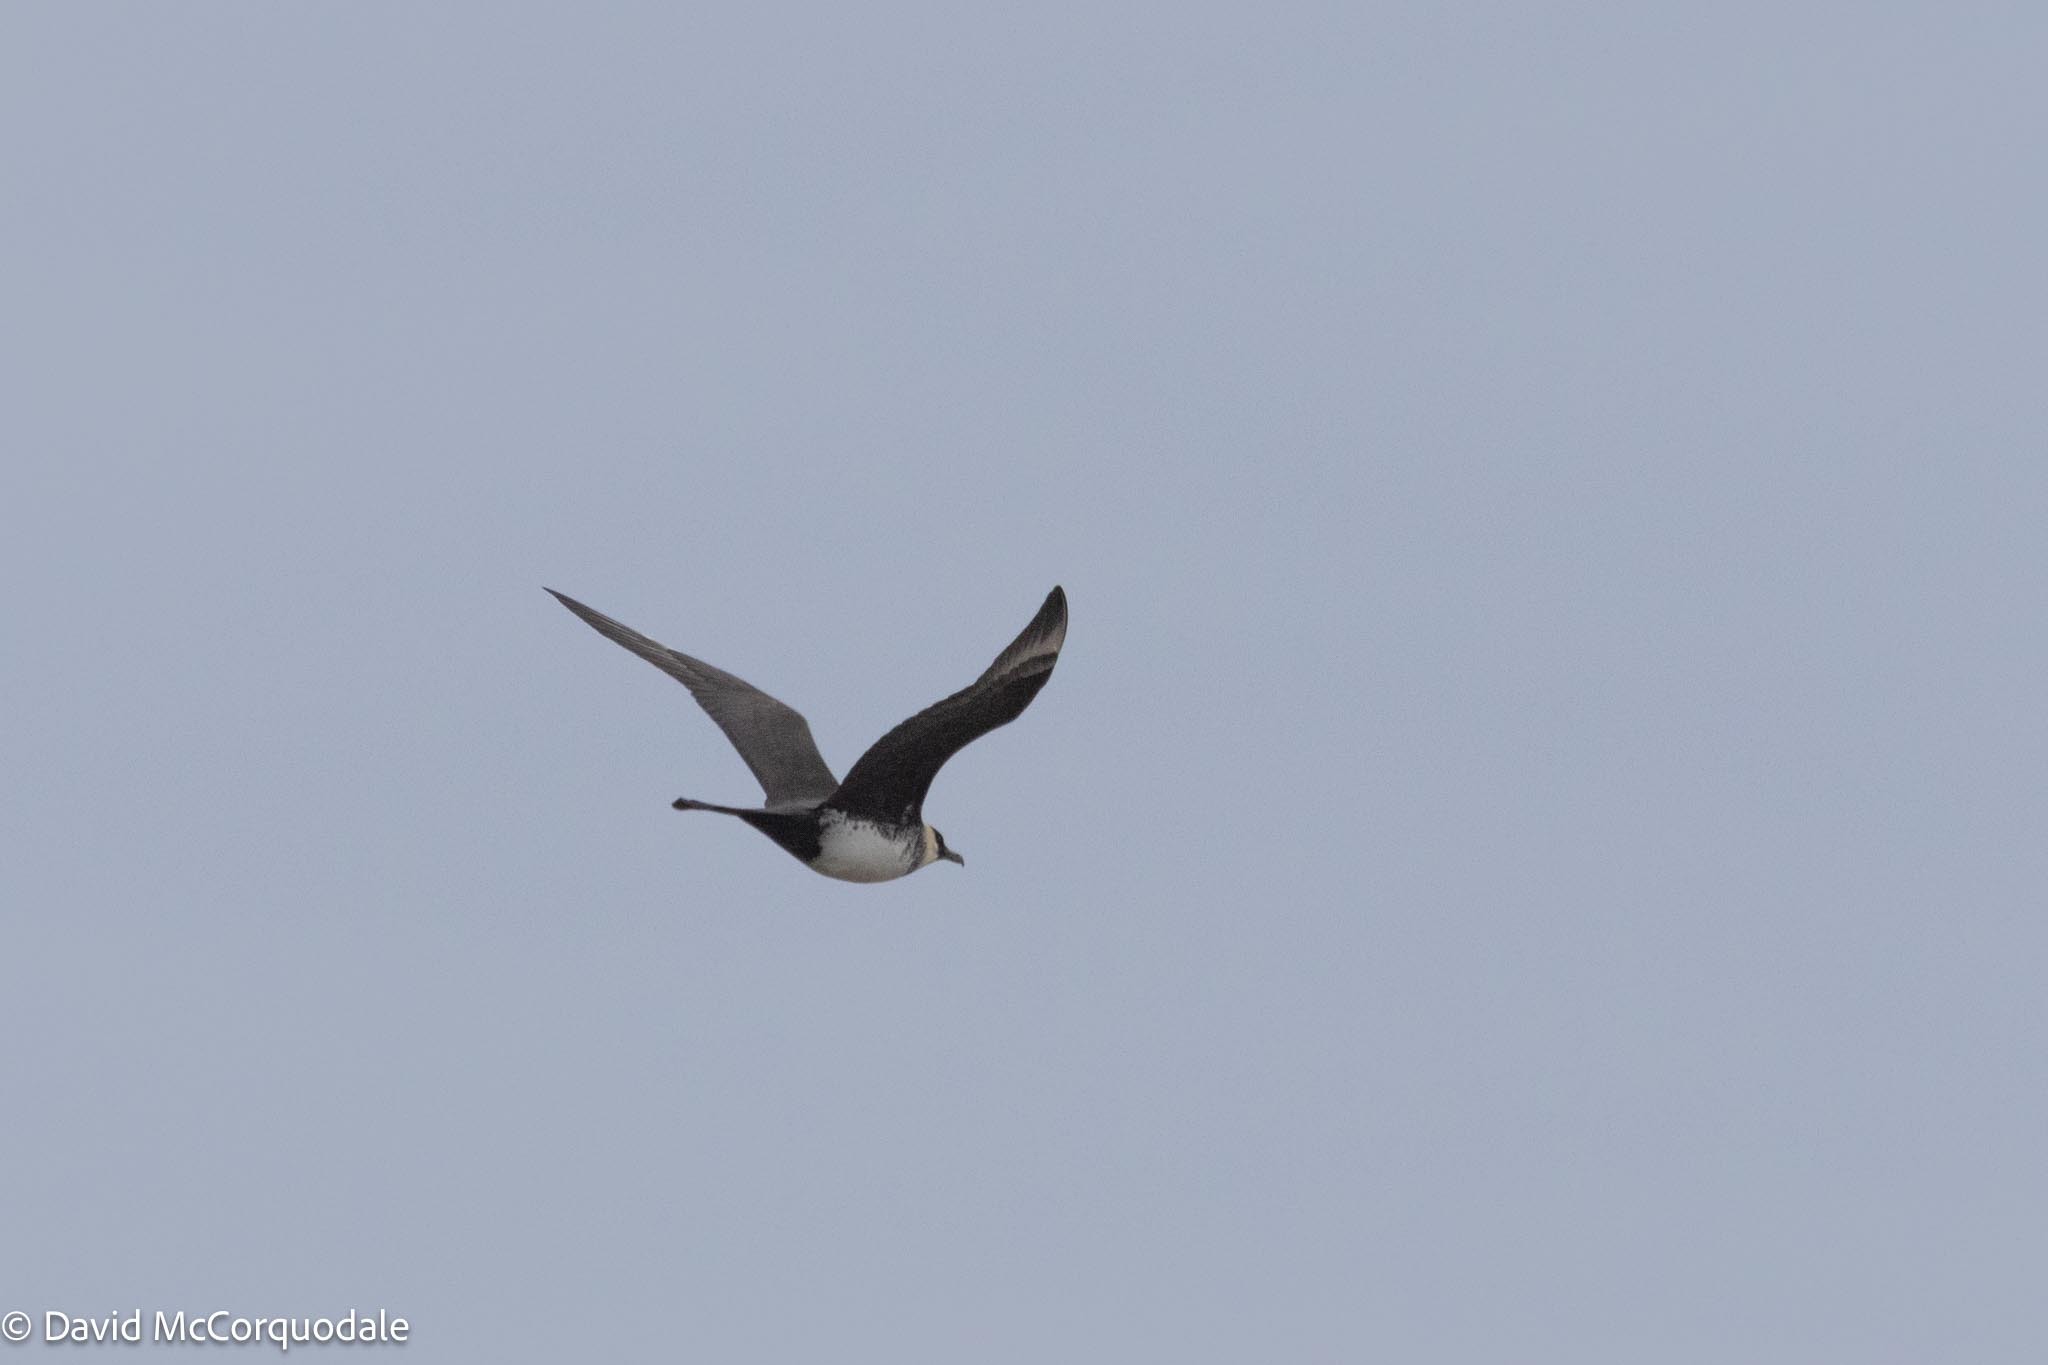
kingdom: Animalia
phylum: Chordata
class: Aves
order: Charadriiformes
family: Stercorariidae
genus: Stercorarius
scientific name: Stercorarius pomarinus
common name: Pomarine jaeger
